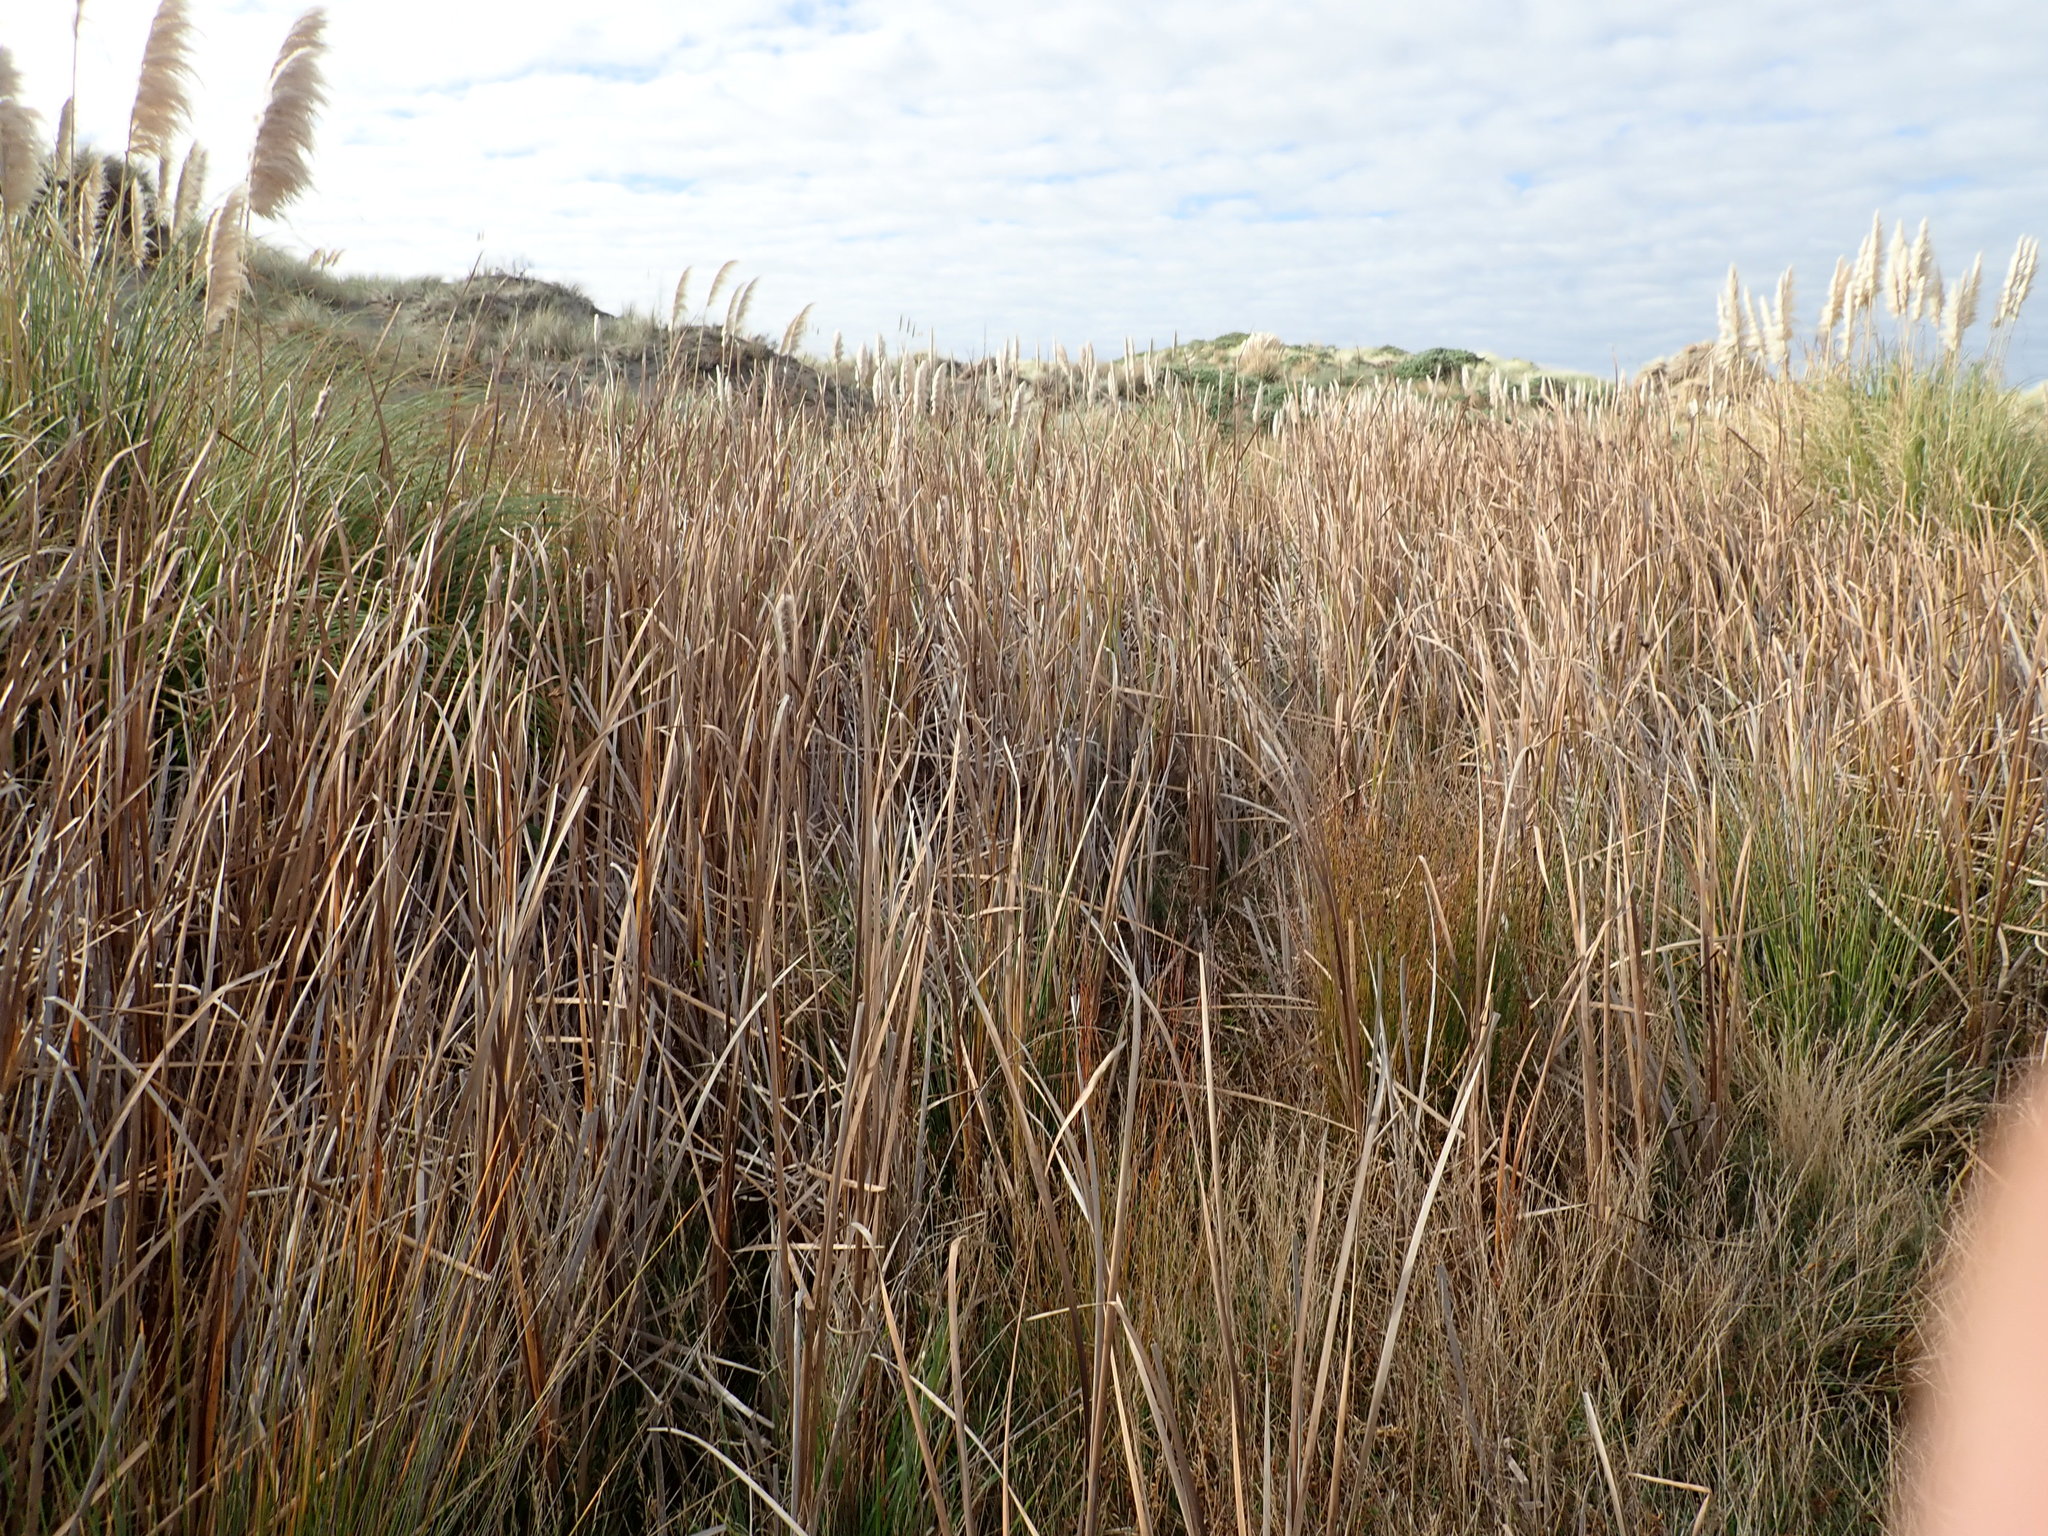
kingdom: Plantae
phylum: Tracheophyta
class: Liliopsida
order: Poales
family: Typhaceae
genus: Typha
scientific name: Typha orientalis
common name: Bullrush
